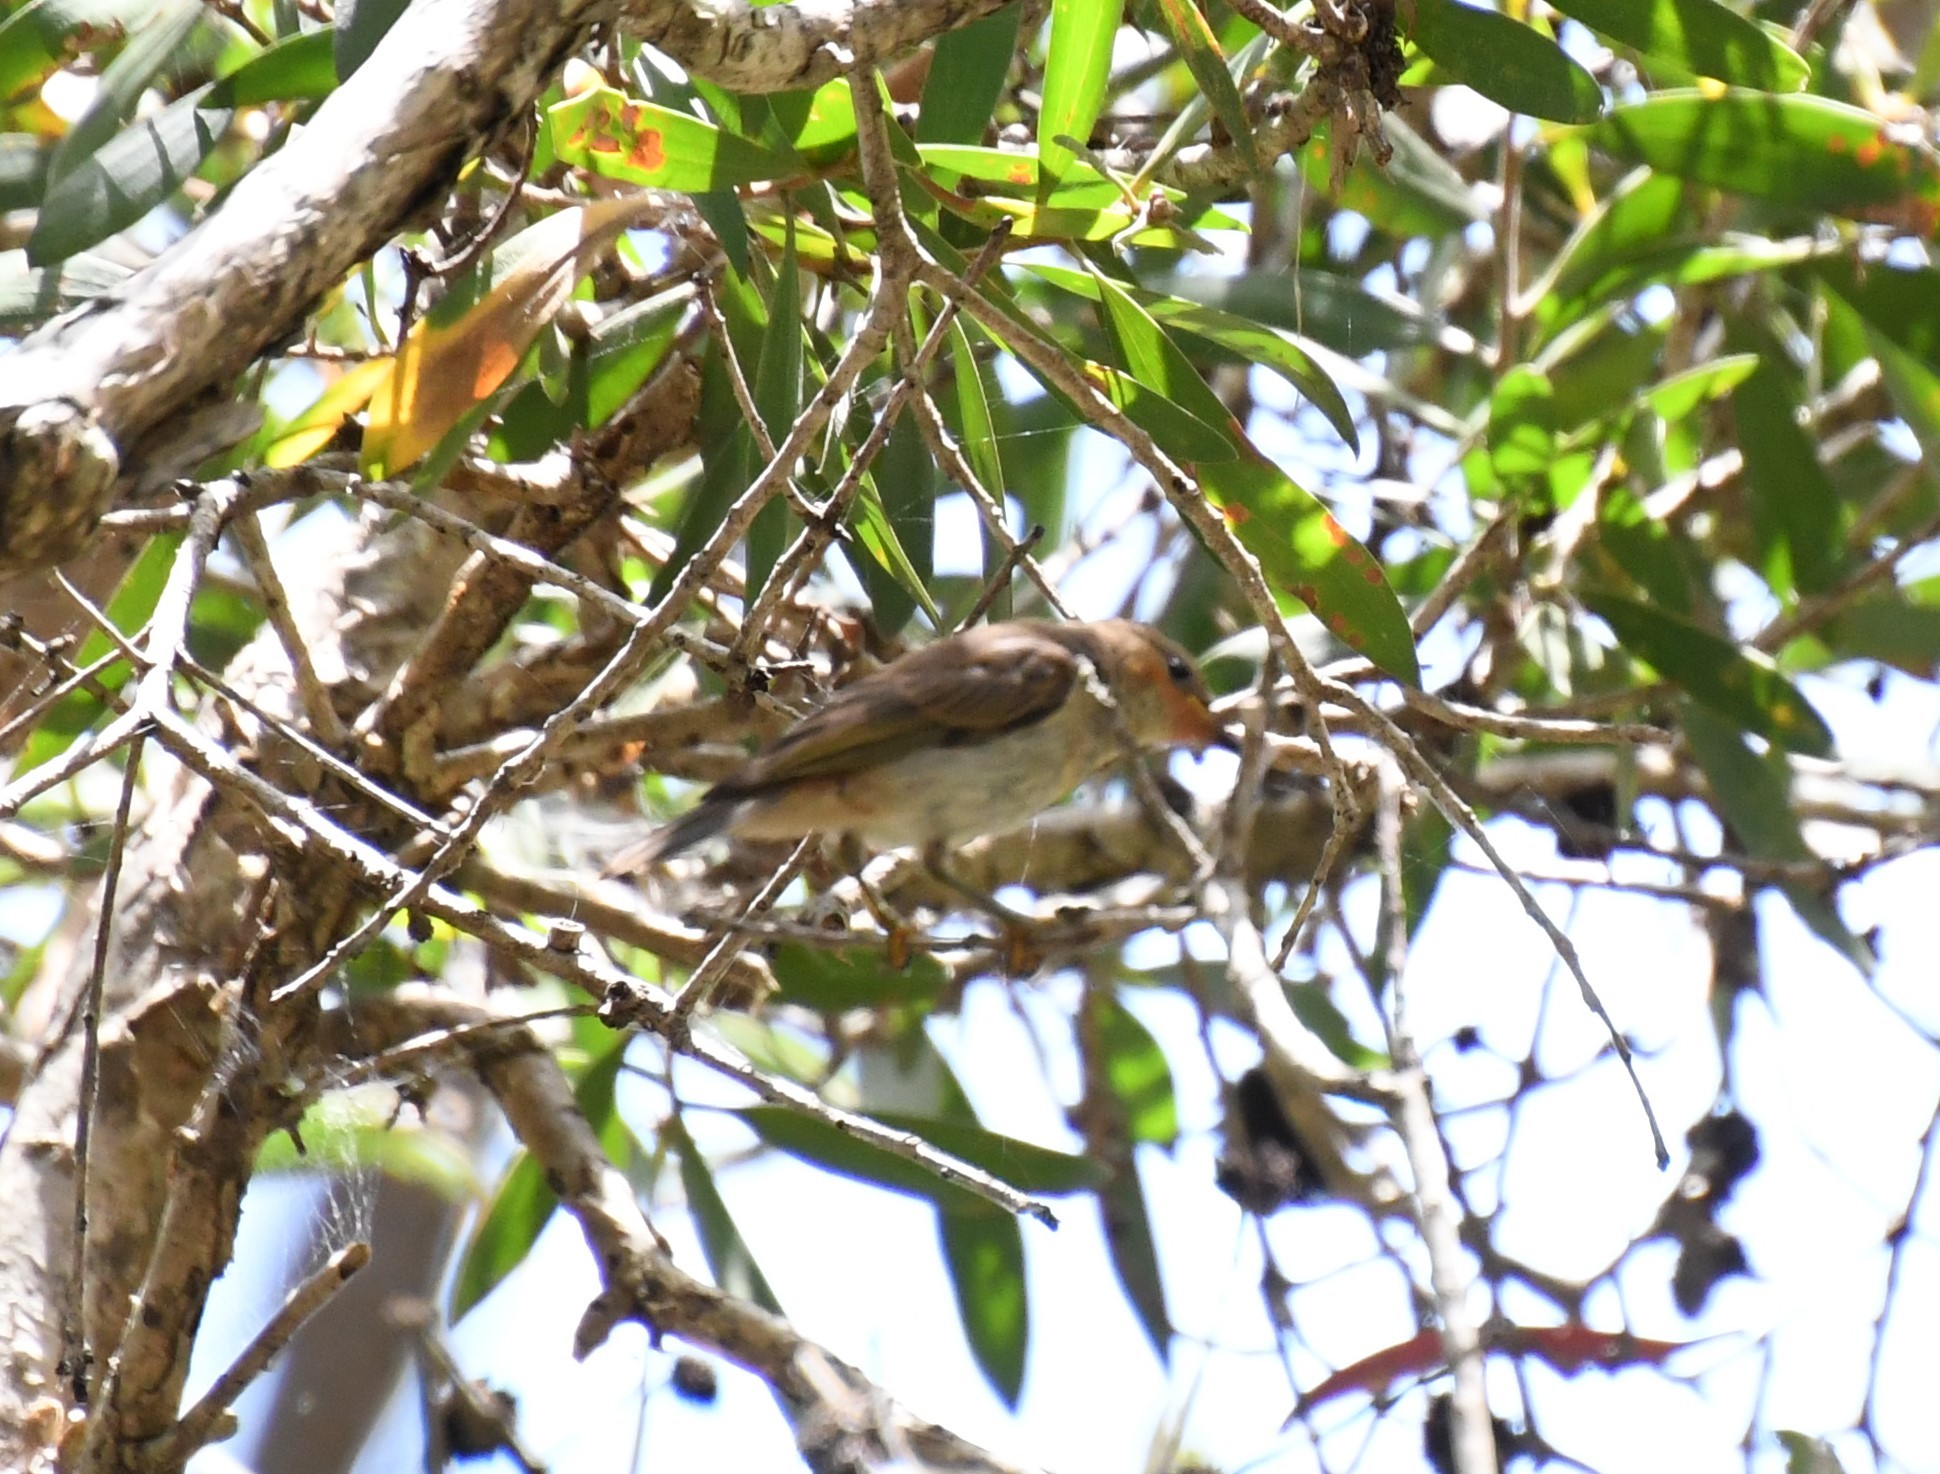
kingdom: Animalia
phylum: Chordata
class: Aves
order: Passeriformes
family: Meliphagidae
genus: Myzomela
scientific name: Myzomela sanguinolenta
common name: Scarlet myzomela
